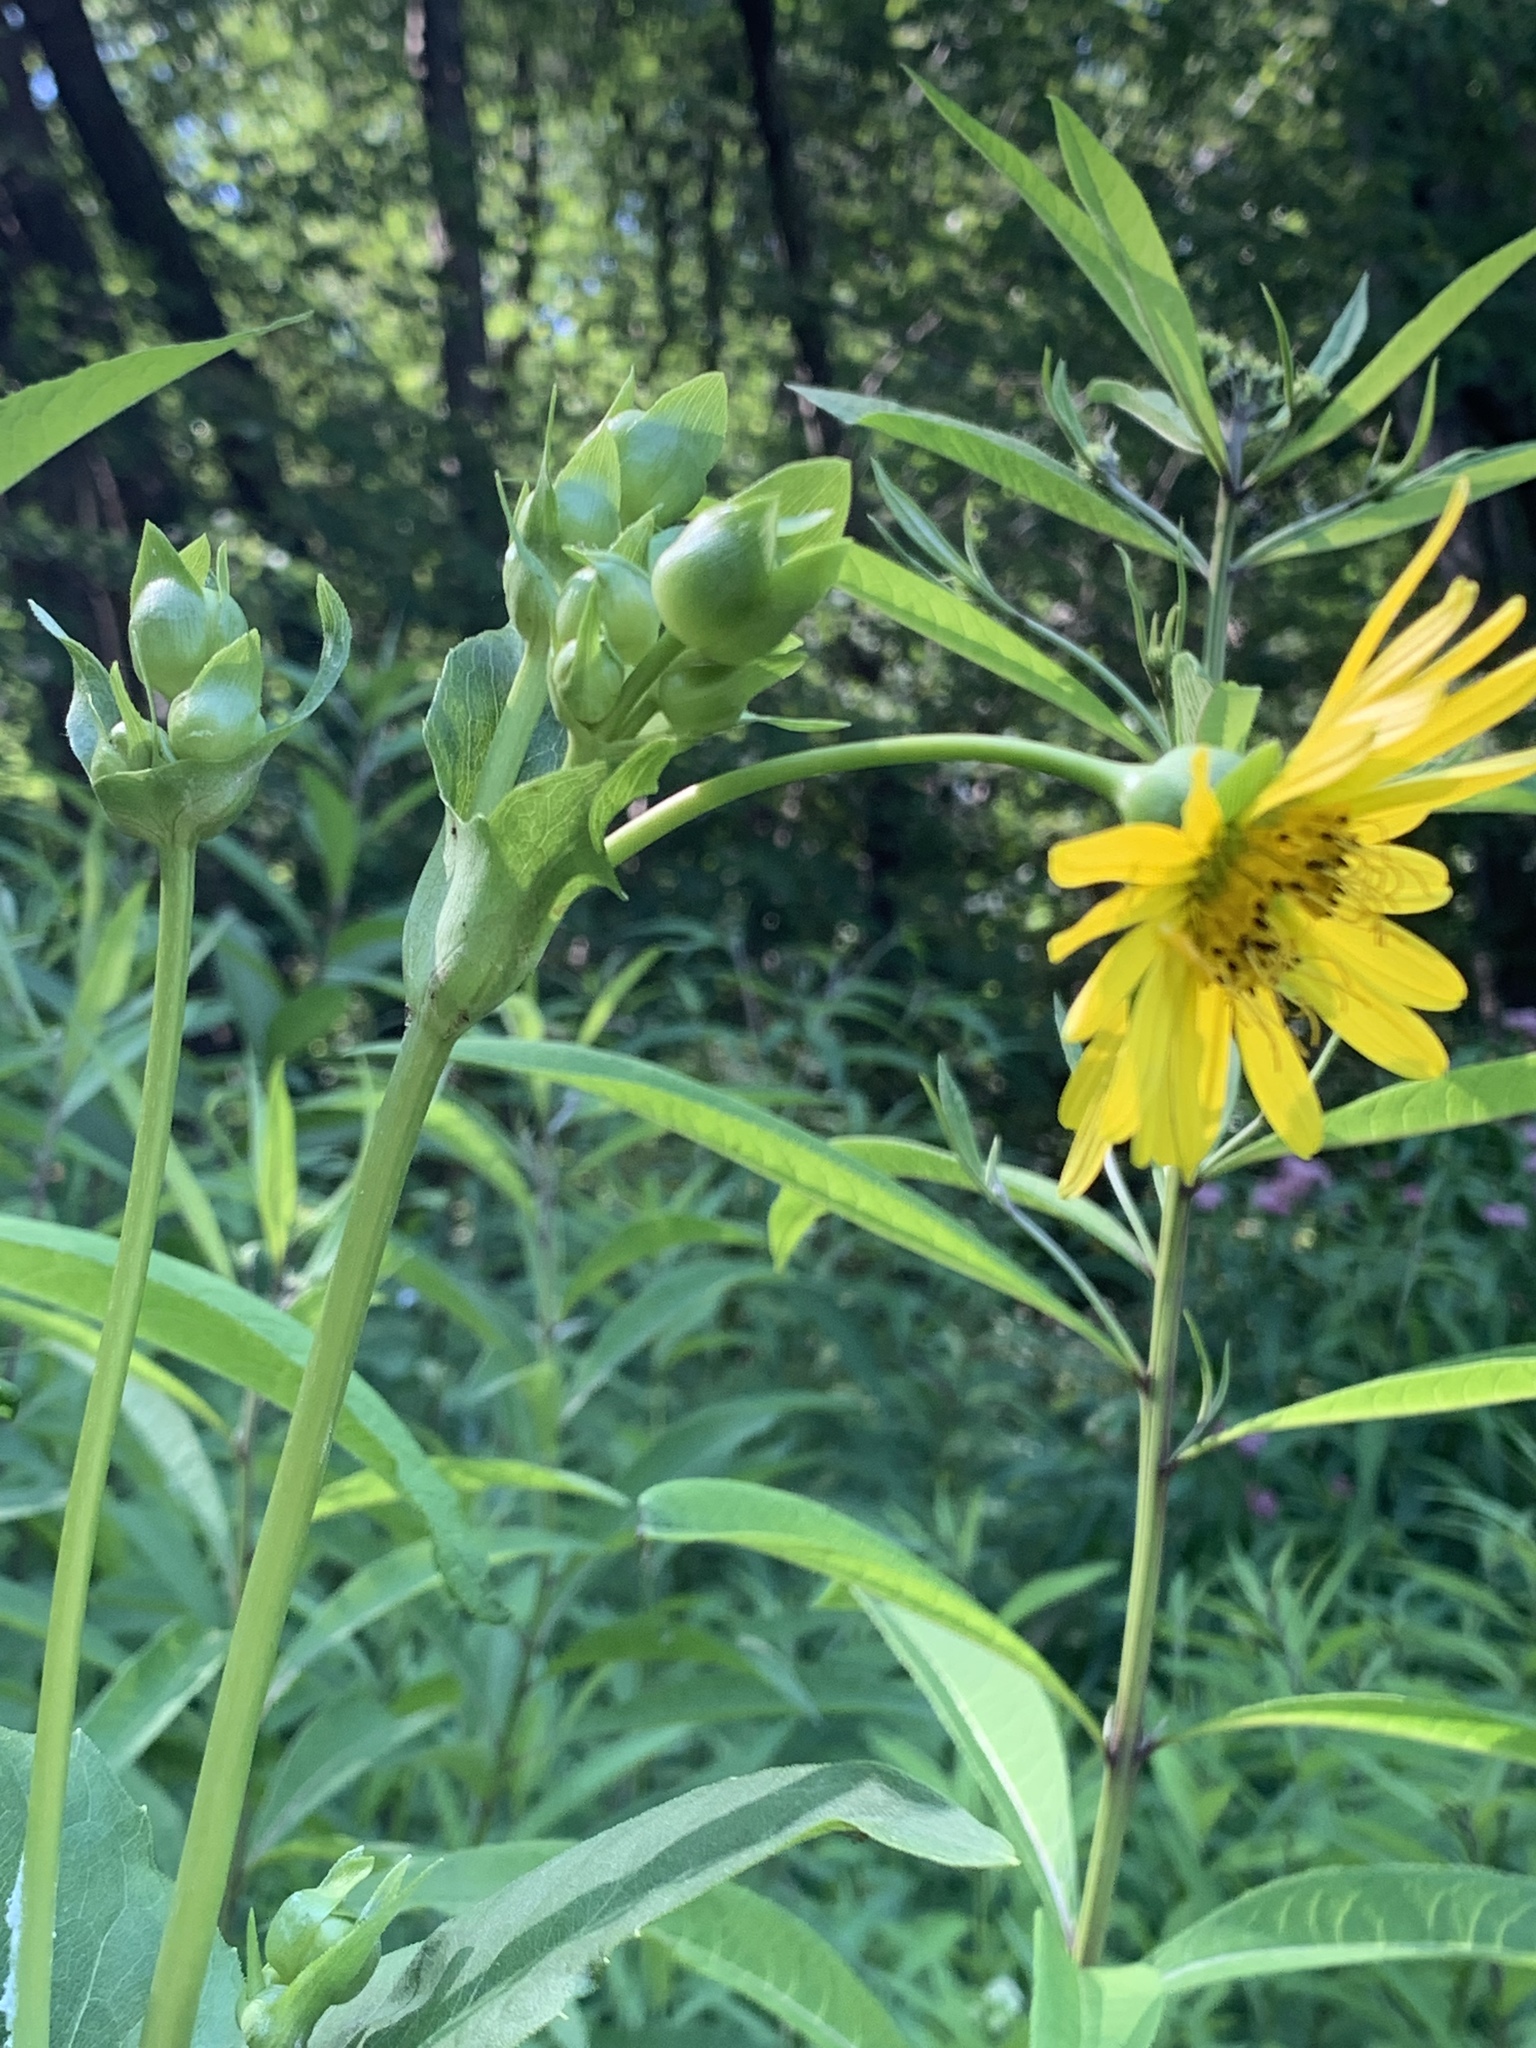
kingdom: Plantae
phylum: Tracheophyta
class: Magnoliopsida
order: Asterales
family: Asteraceae
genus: Silphium
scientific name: Silphium perfoliatum
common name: Cup-plant
